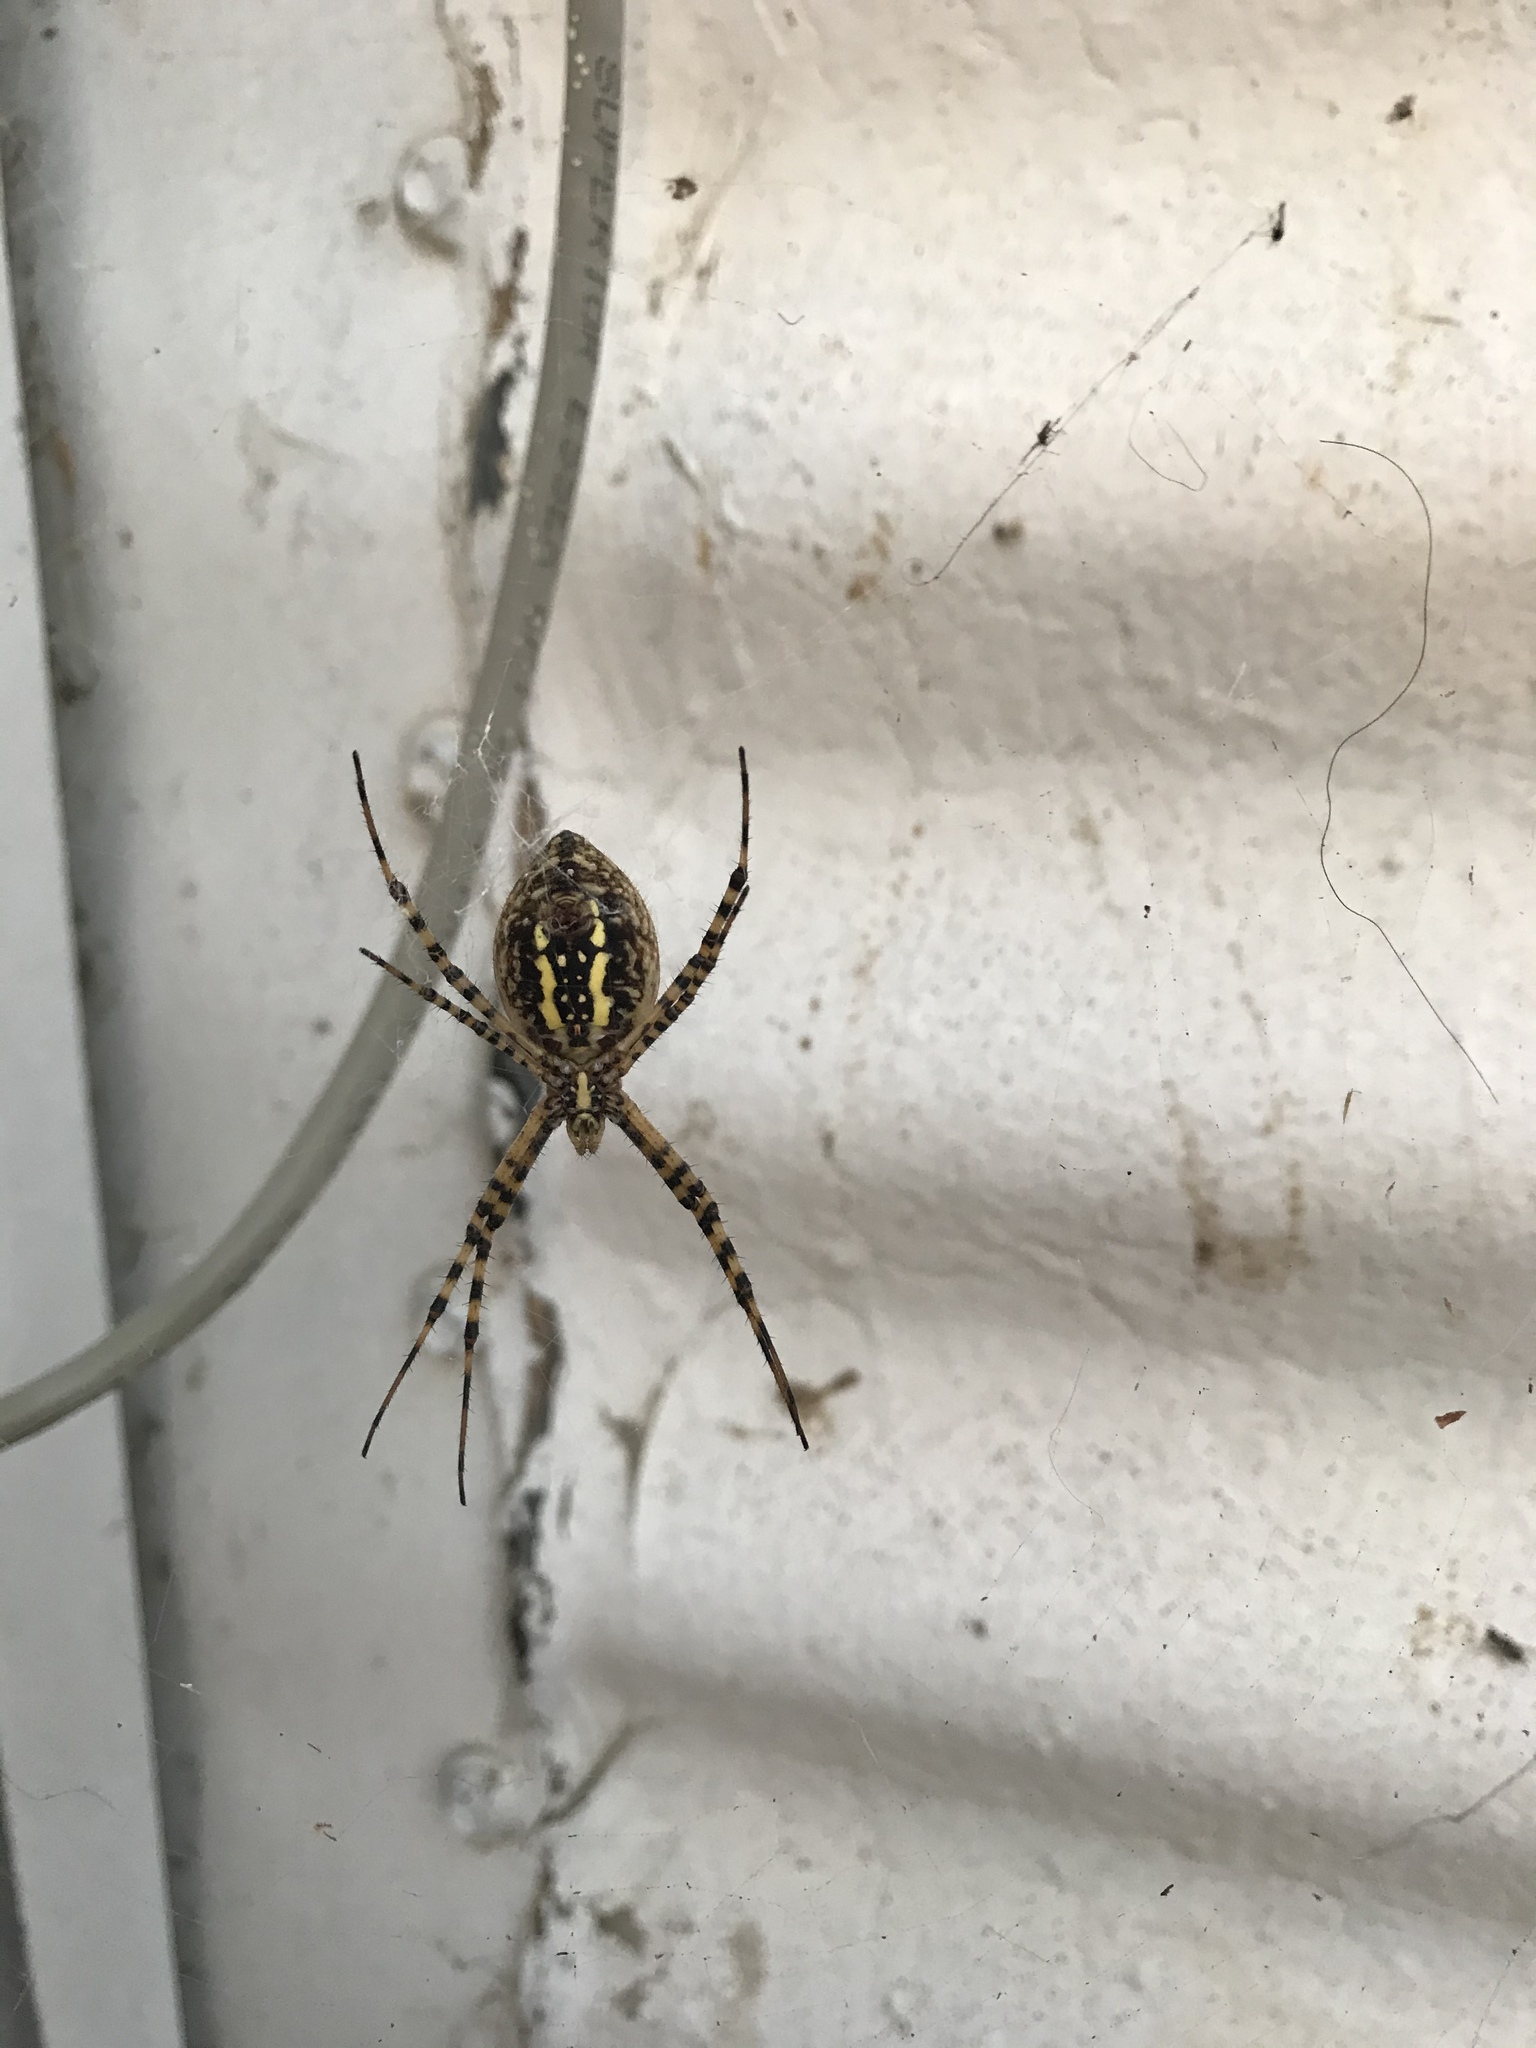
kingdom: Animalia
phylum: Arthropoda
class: Arachnida
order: Araneae
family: Araneidae
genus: Argiope
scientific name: Argiope trifasciata
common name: Banded garden spider
